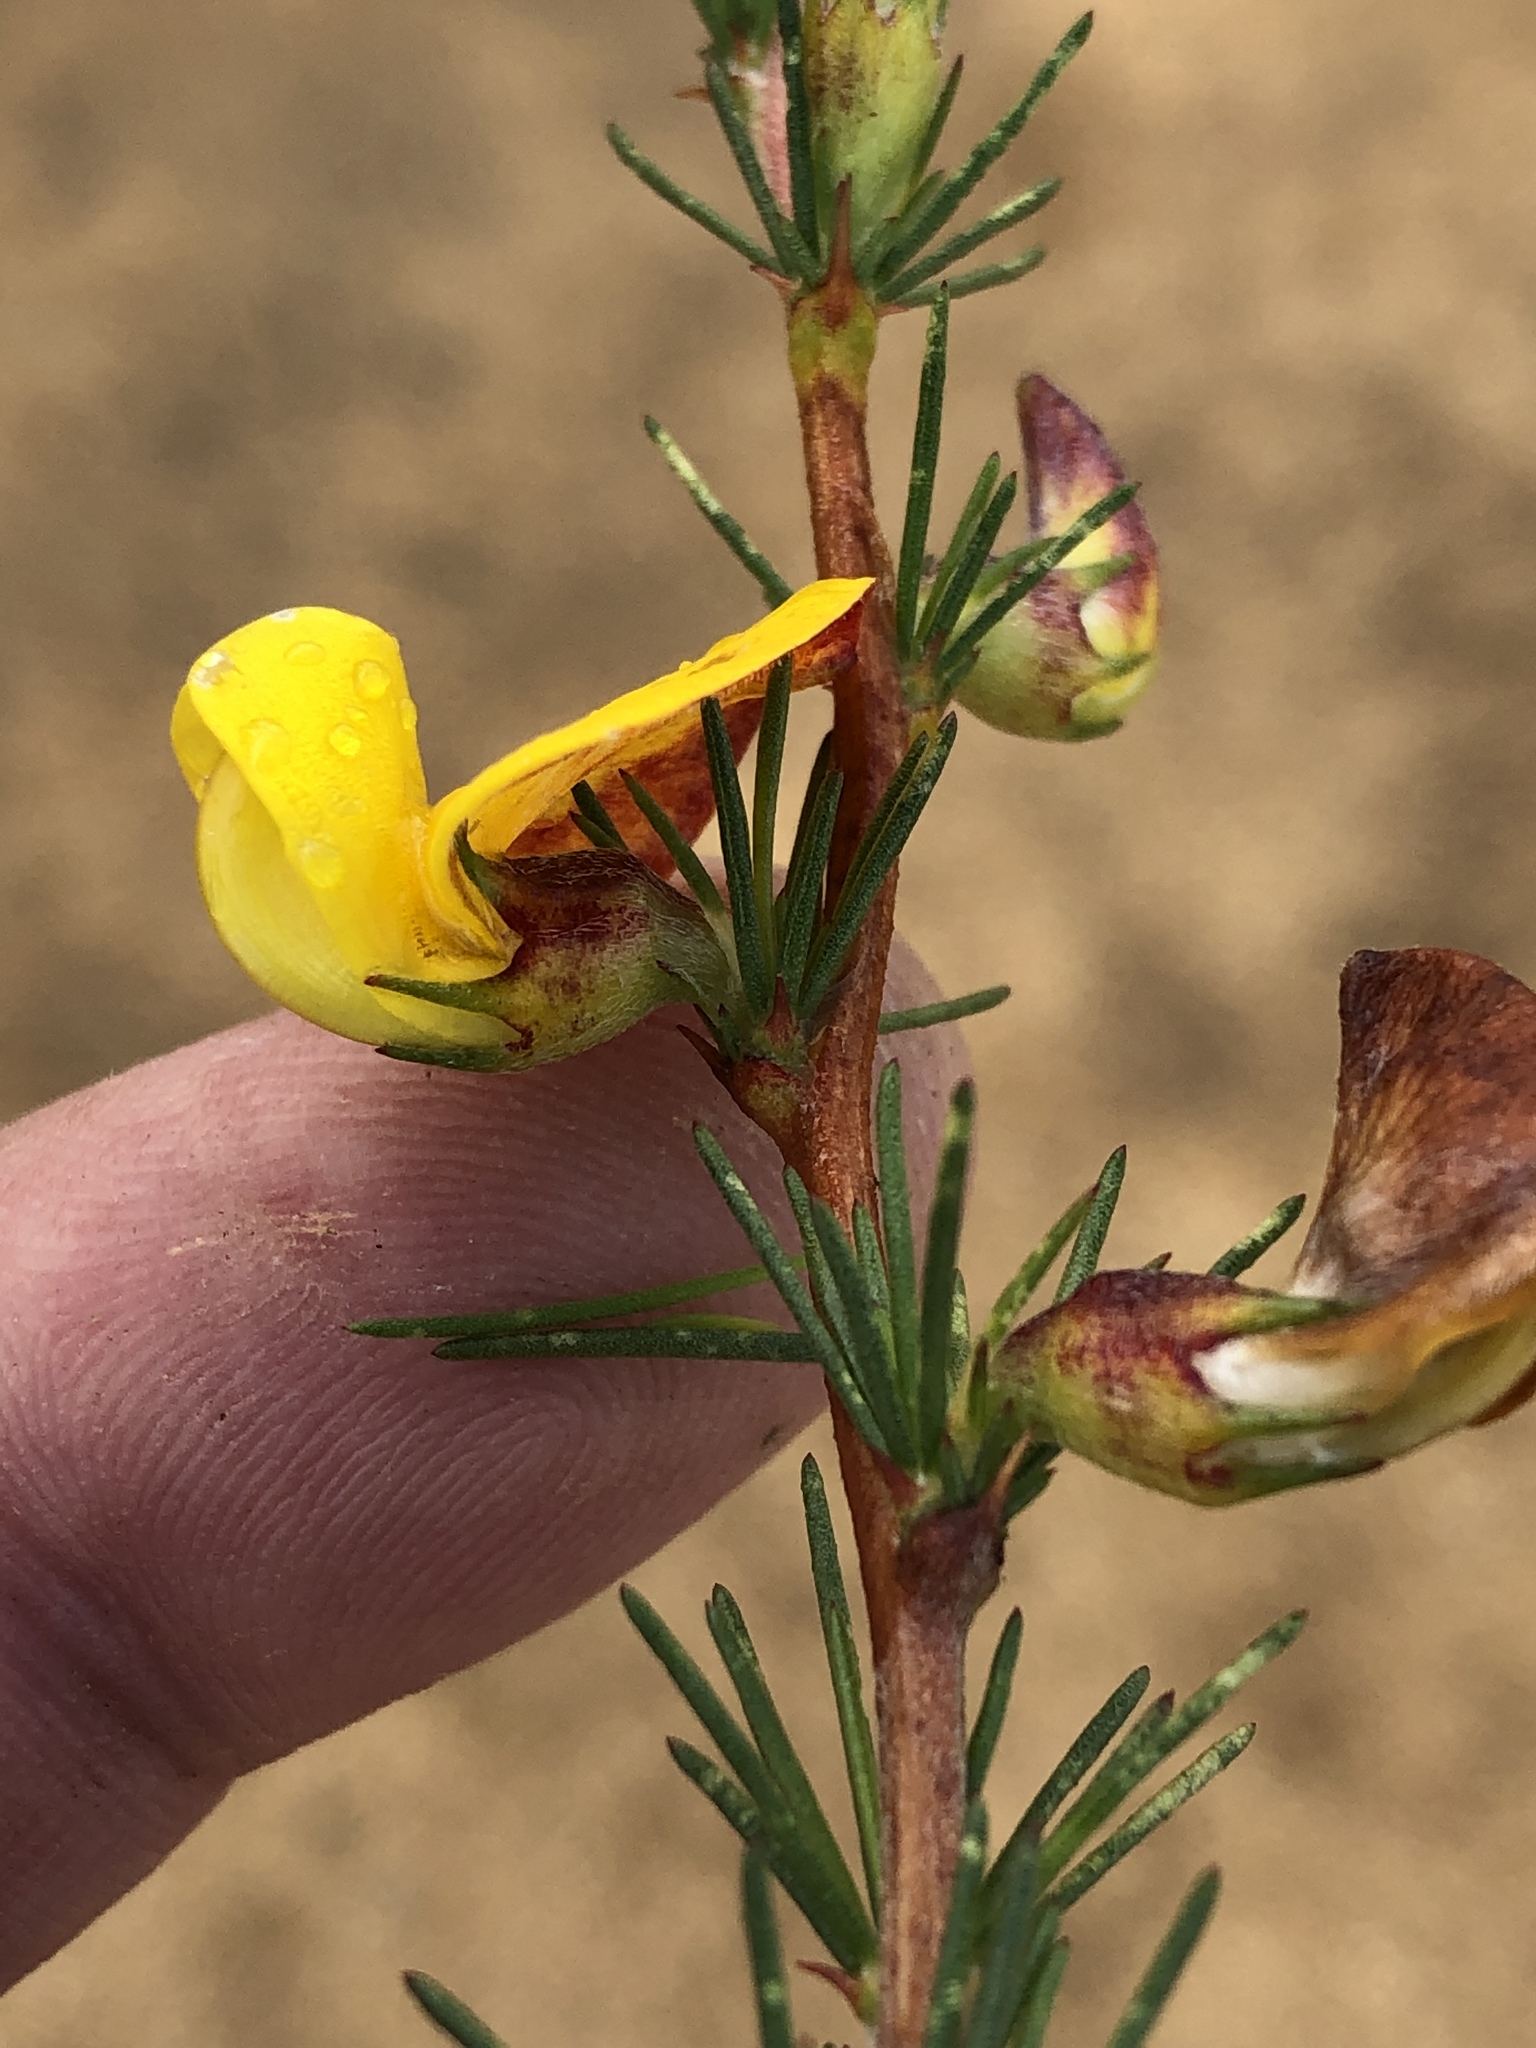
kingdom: Plantae
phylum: Tracheophyta
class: Magnoliopsida
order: Fabales
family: Fabaceae
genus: Aspalathus
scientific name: Aspalathus willdenowiana
